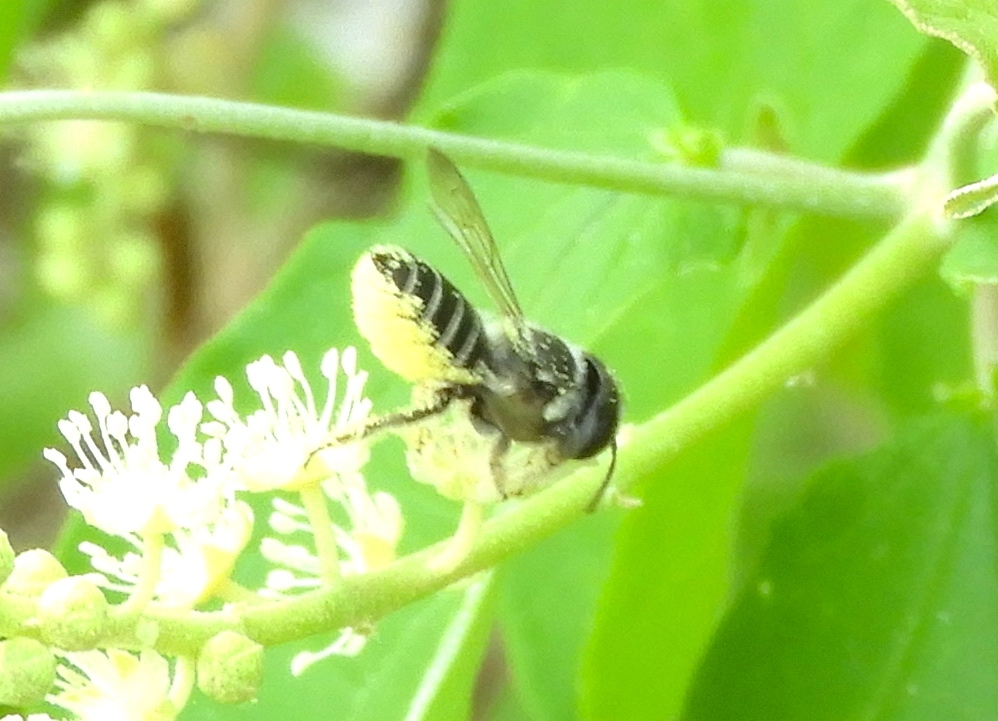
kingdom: Animalia
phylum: Arthropoda
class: Insecta
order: Hymenoptera
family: Megachilidae
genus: Megachile
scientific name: Megachile
